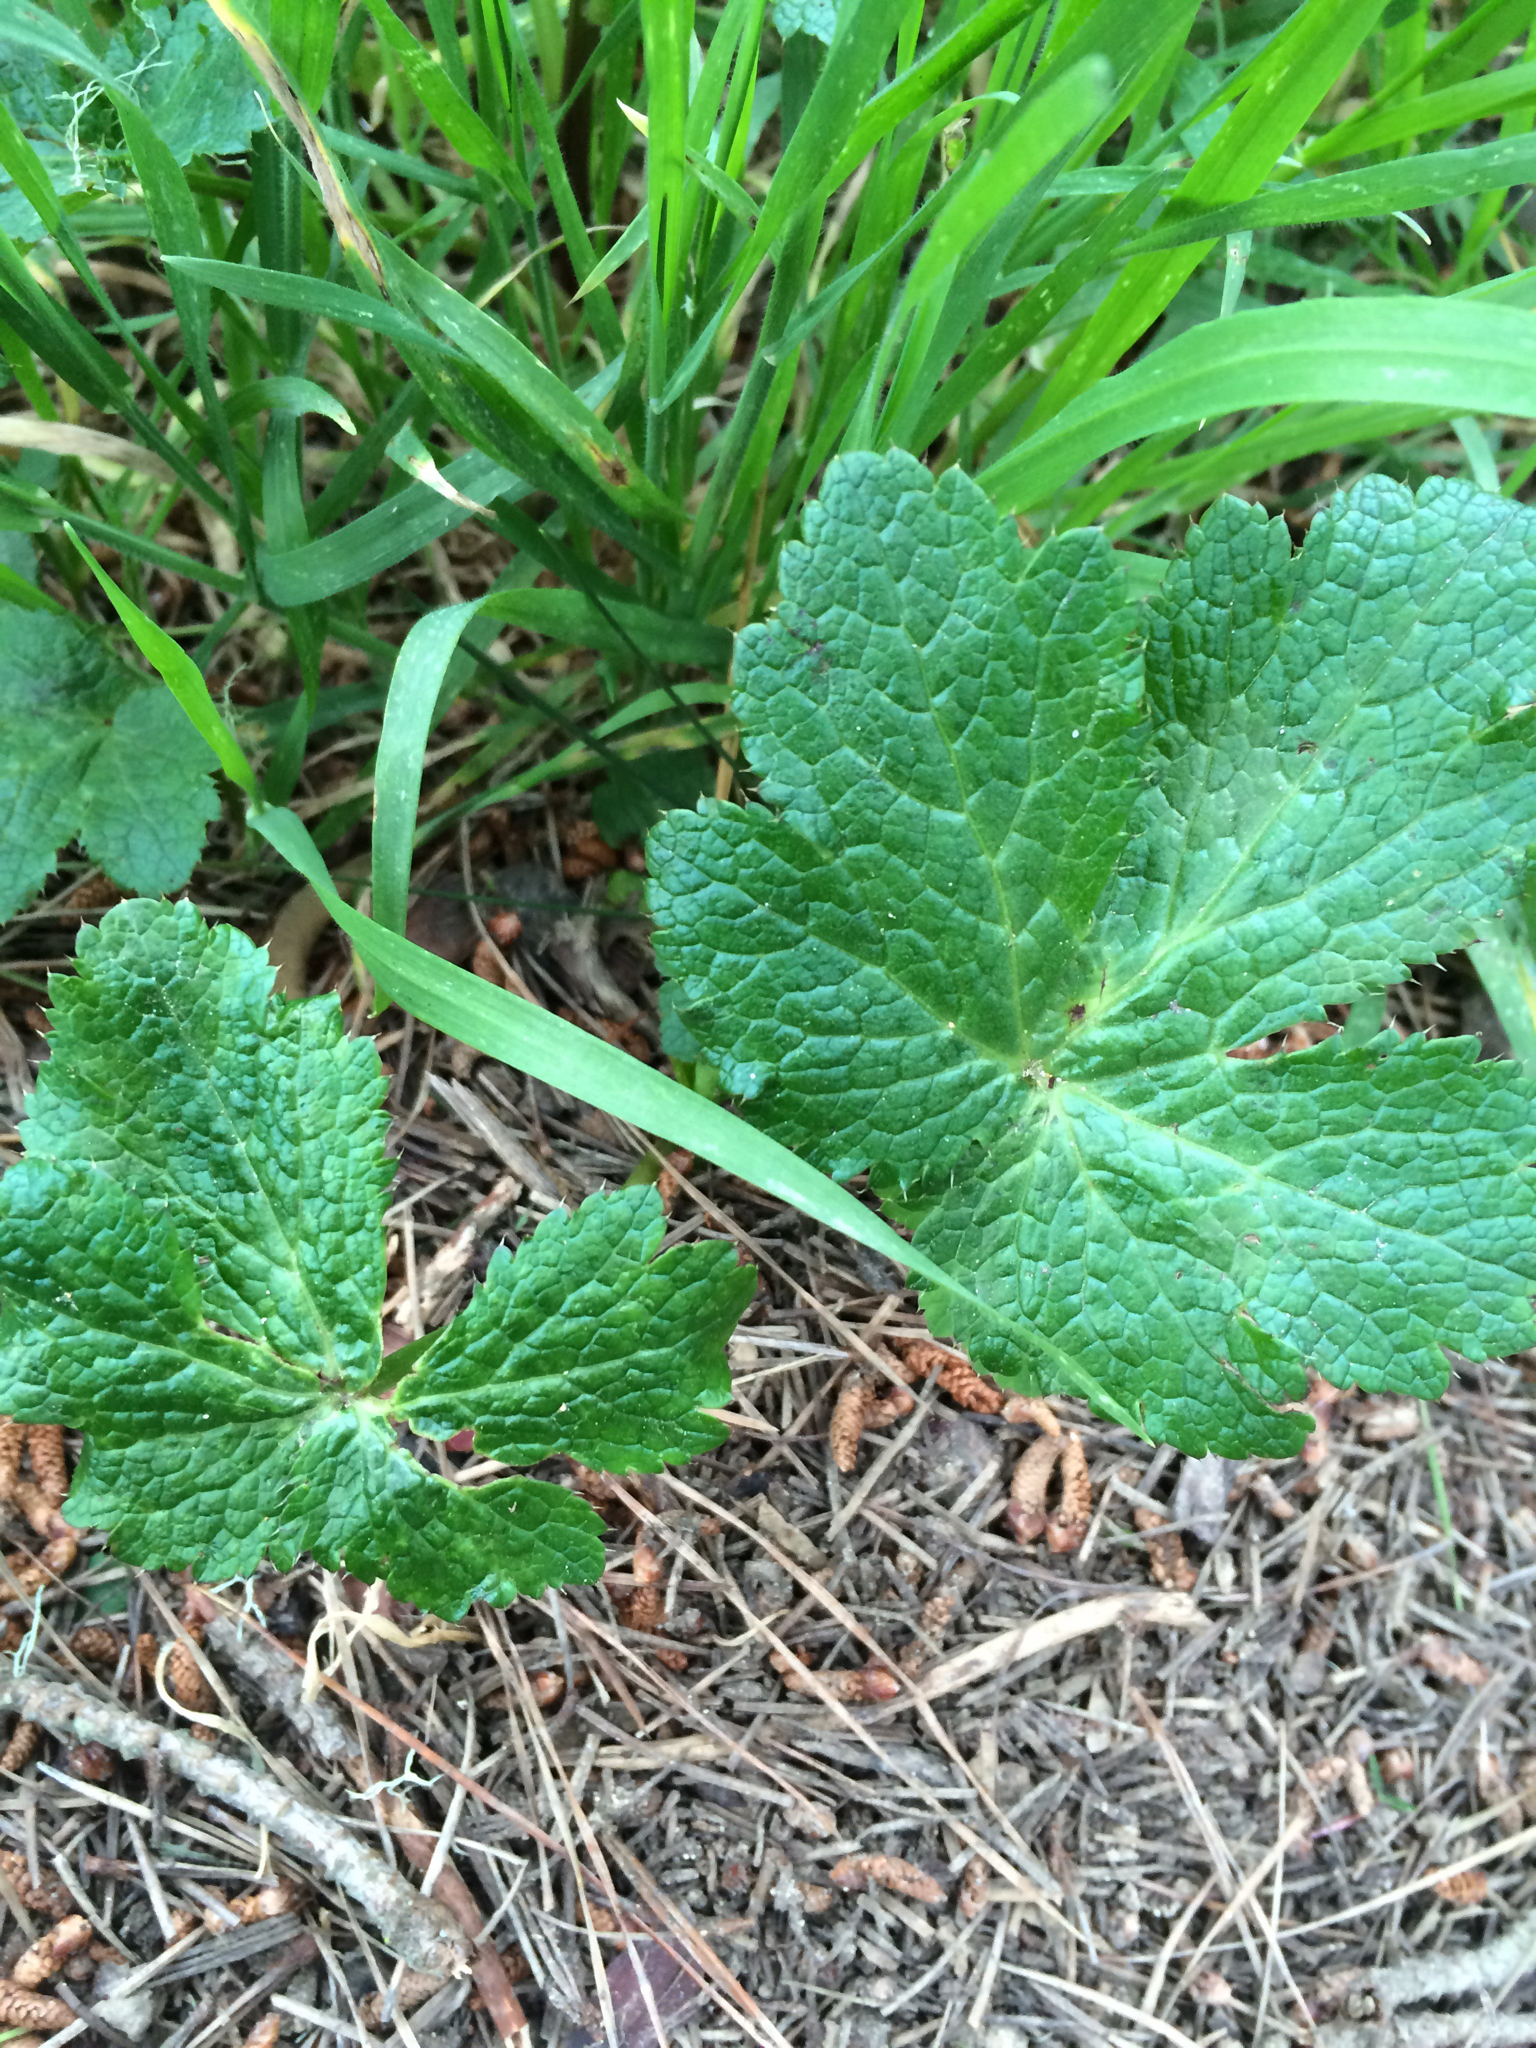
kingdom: Plantae
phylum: Tracheophyta
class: Magnoliopsida
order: Apiales
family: Apiaceae
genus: Sanicula
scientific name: Sanicula crassicaulis
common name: Western snakeroot
